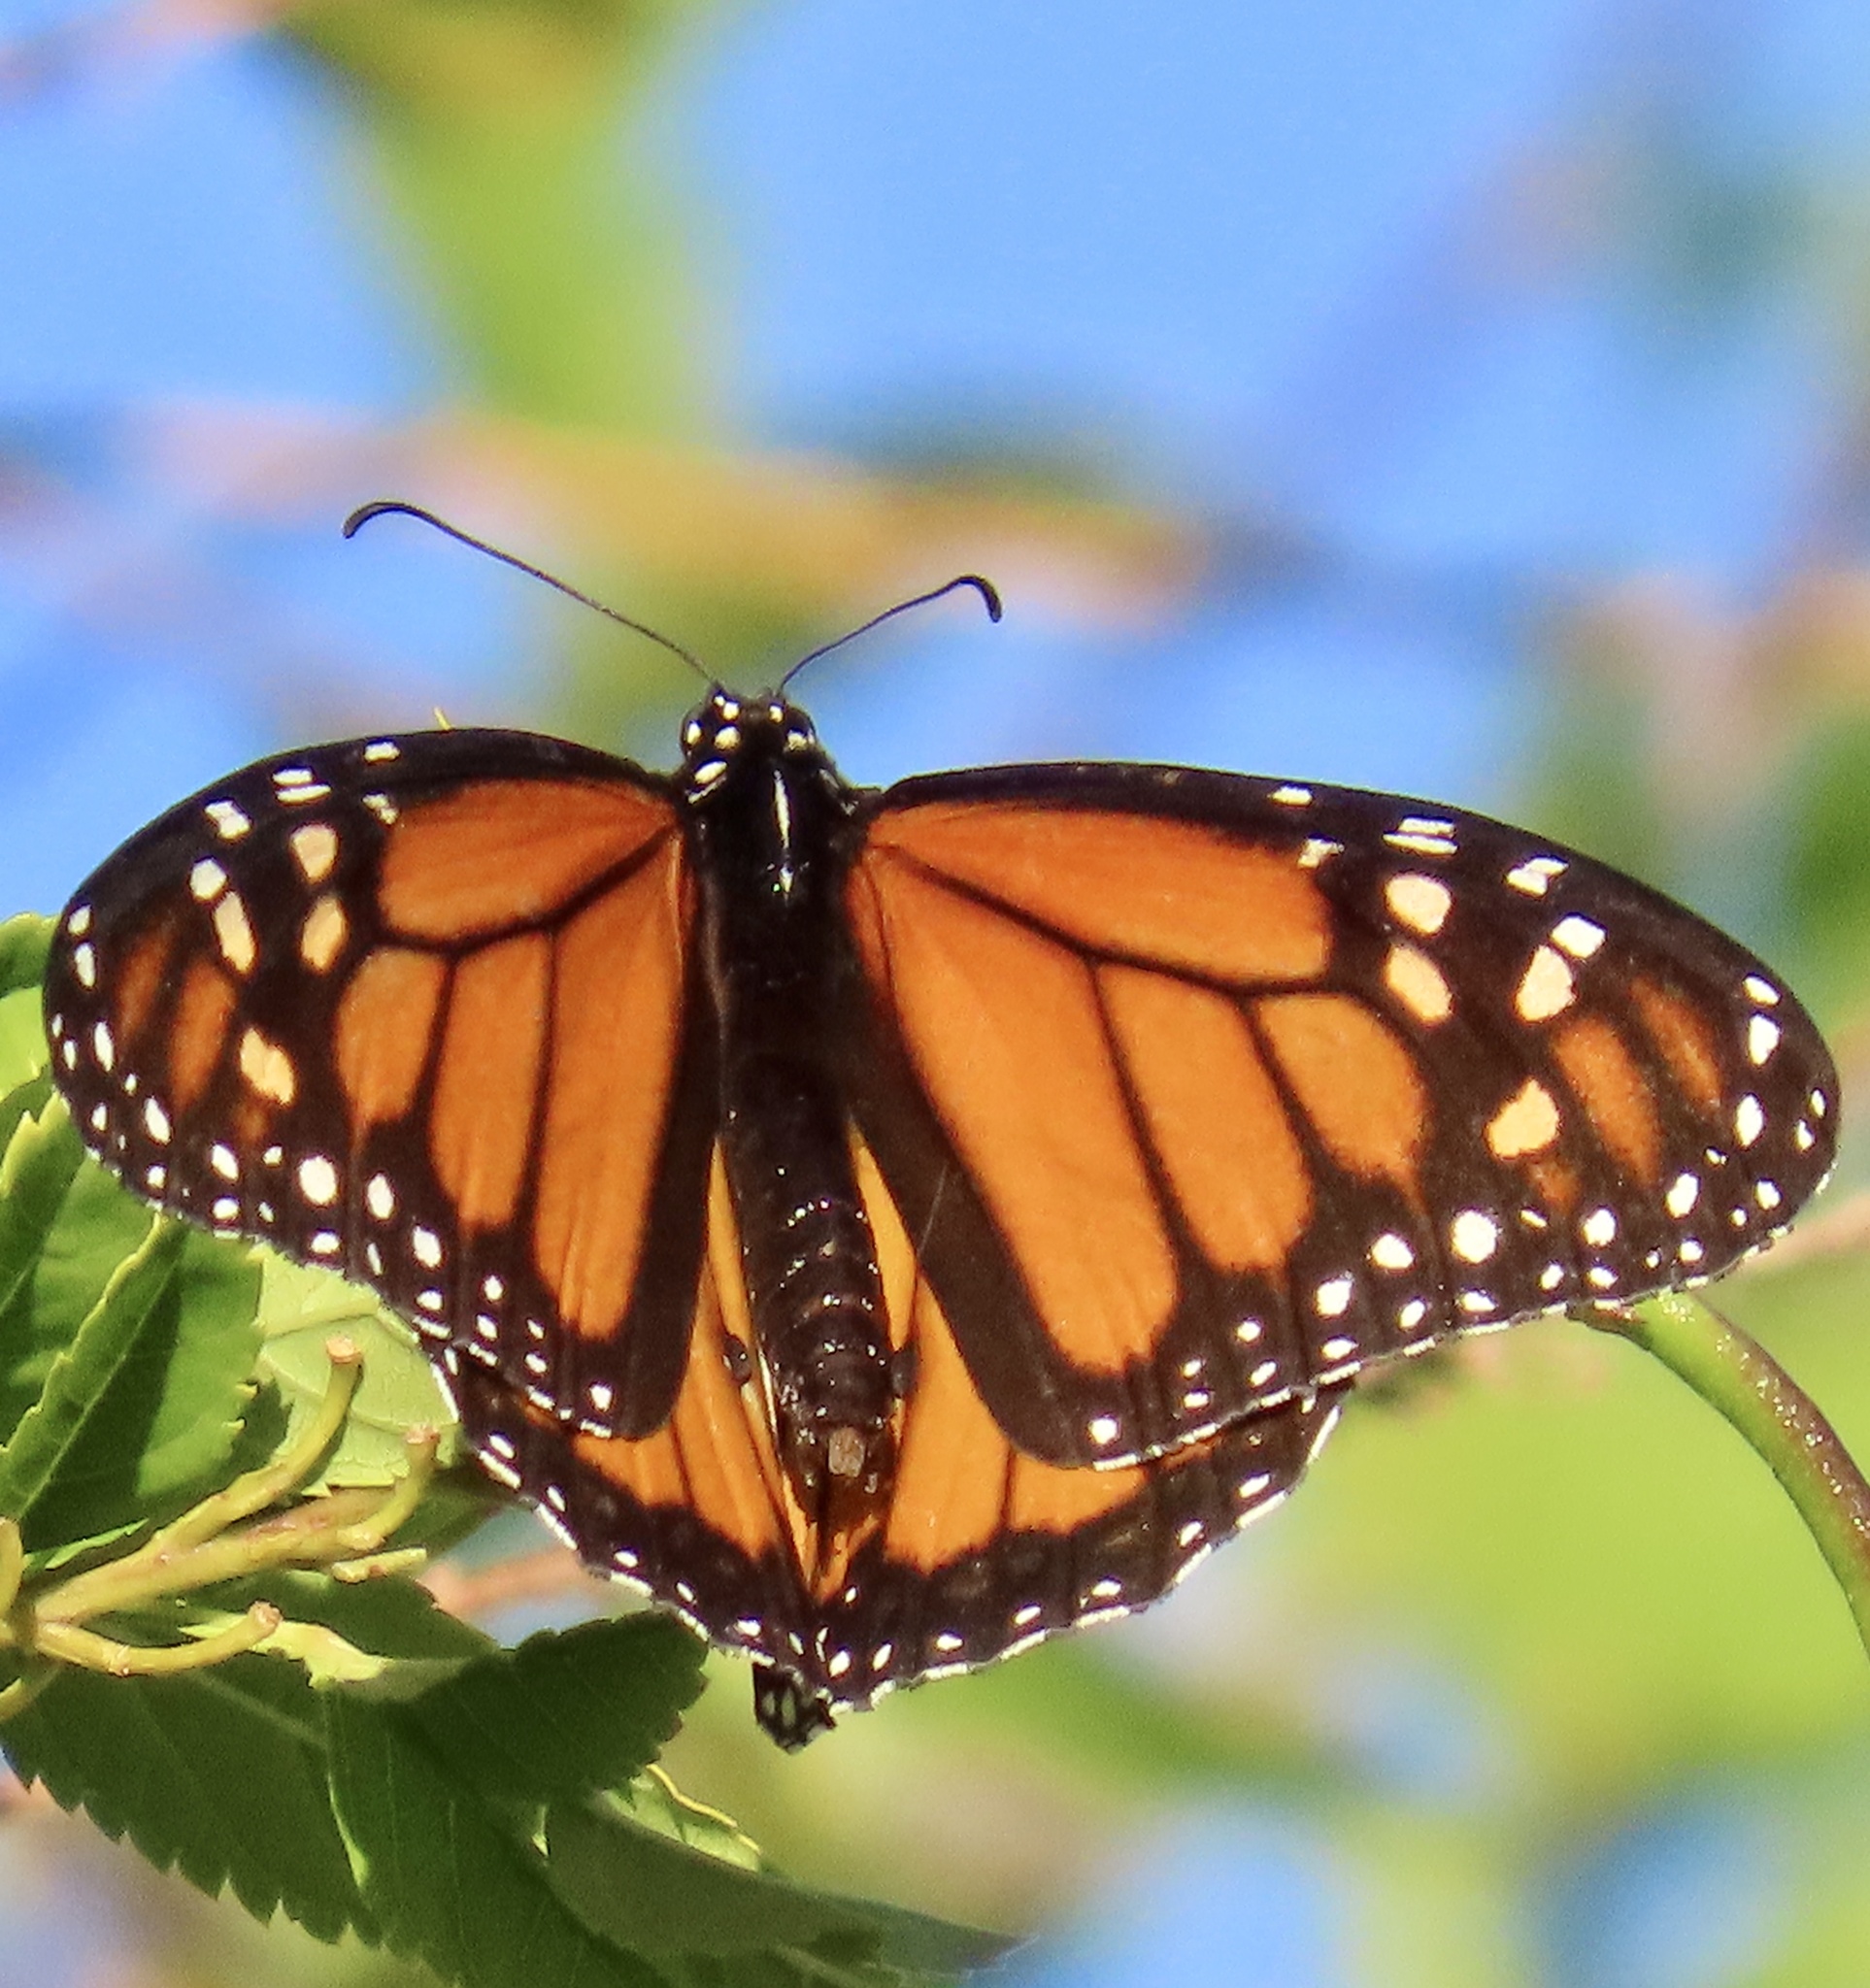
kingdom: Animalia
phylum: Arthropoda
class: Insecta
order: Lepidoptera
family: Nymphalidae
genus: Danaus
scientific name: Danaus plexippus
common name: Monarch
